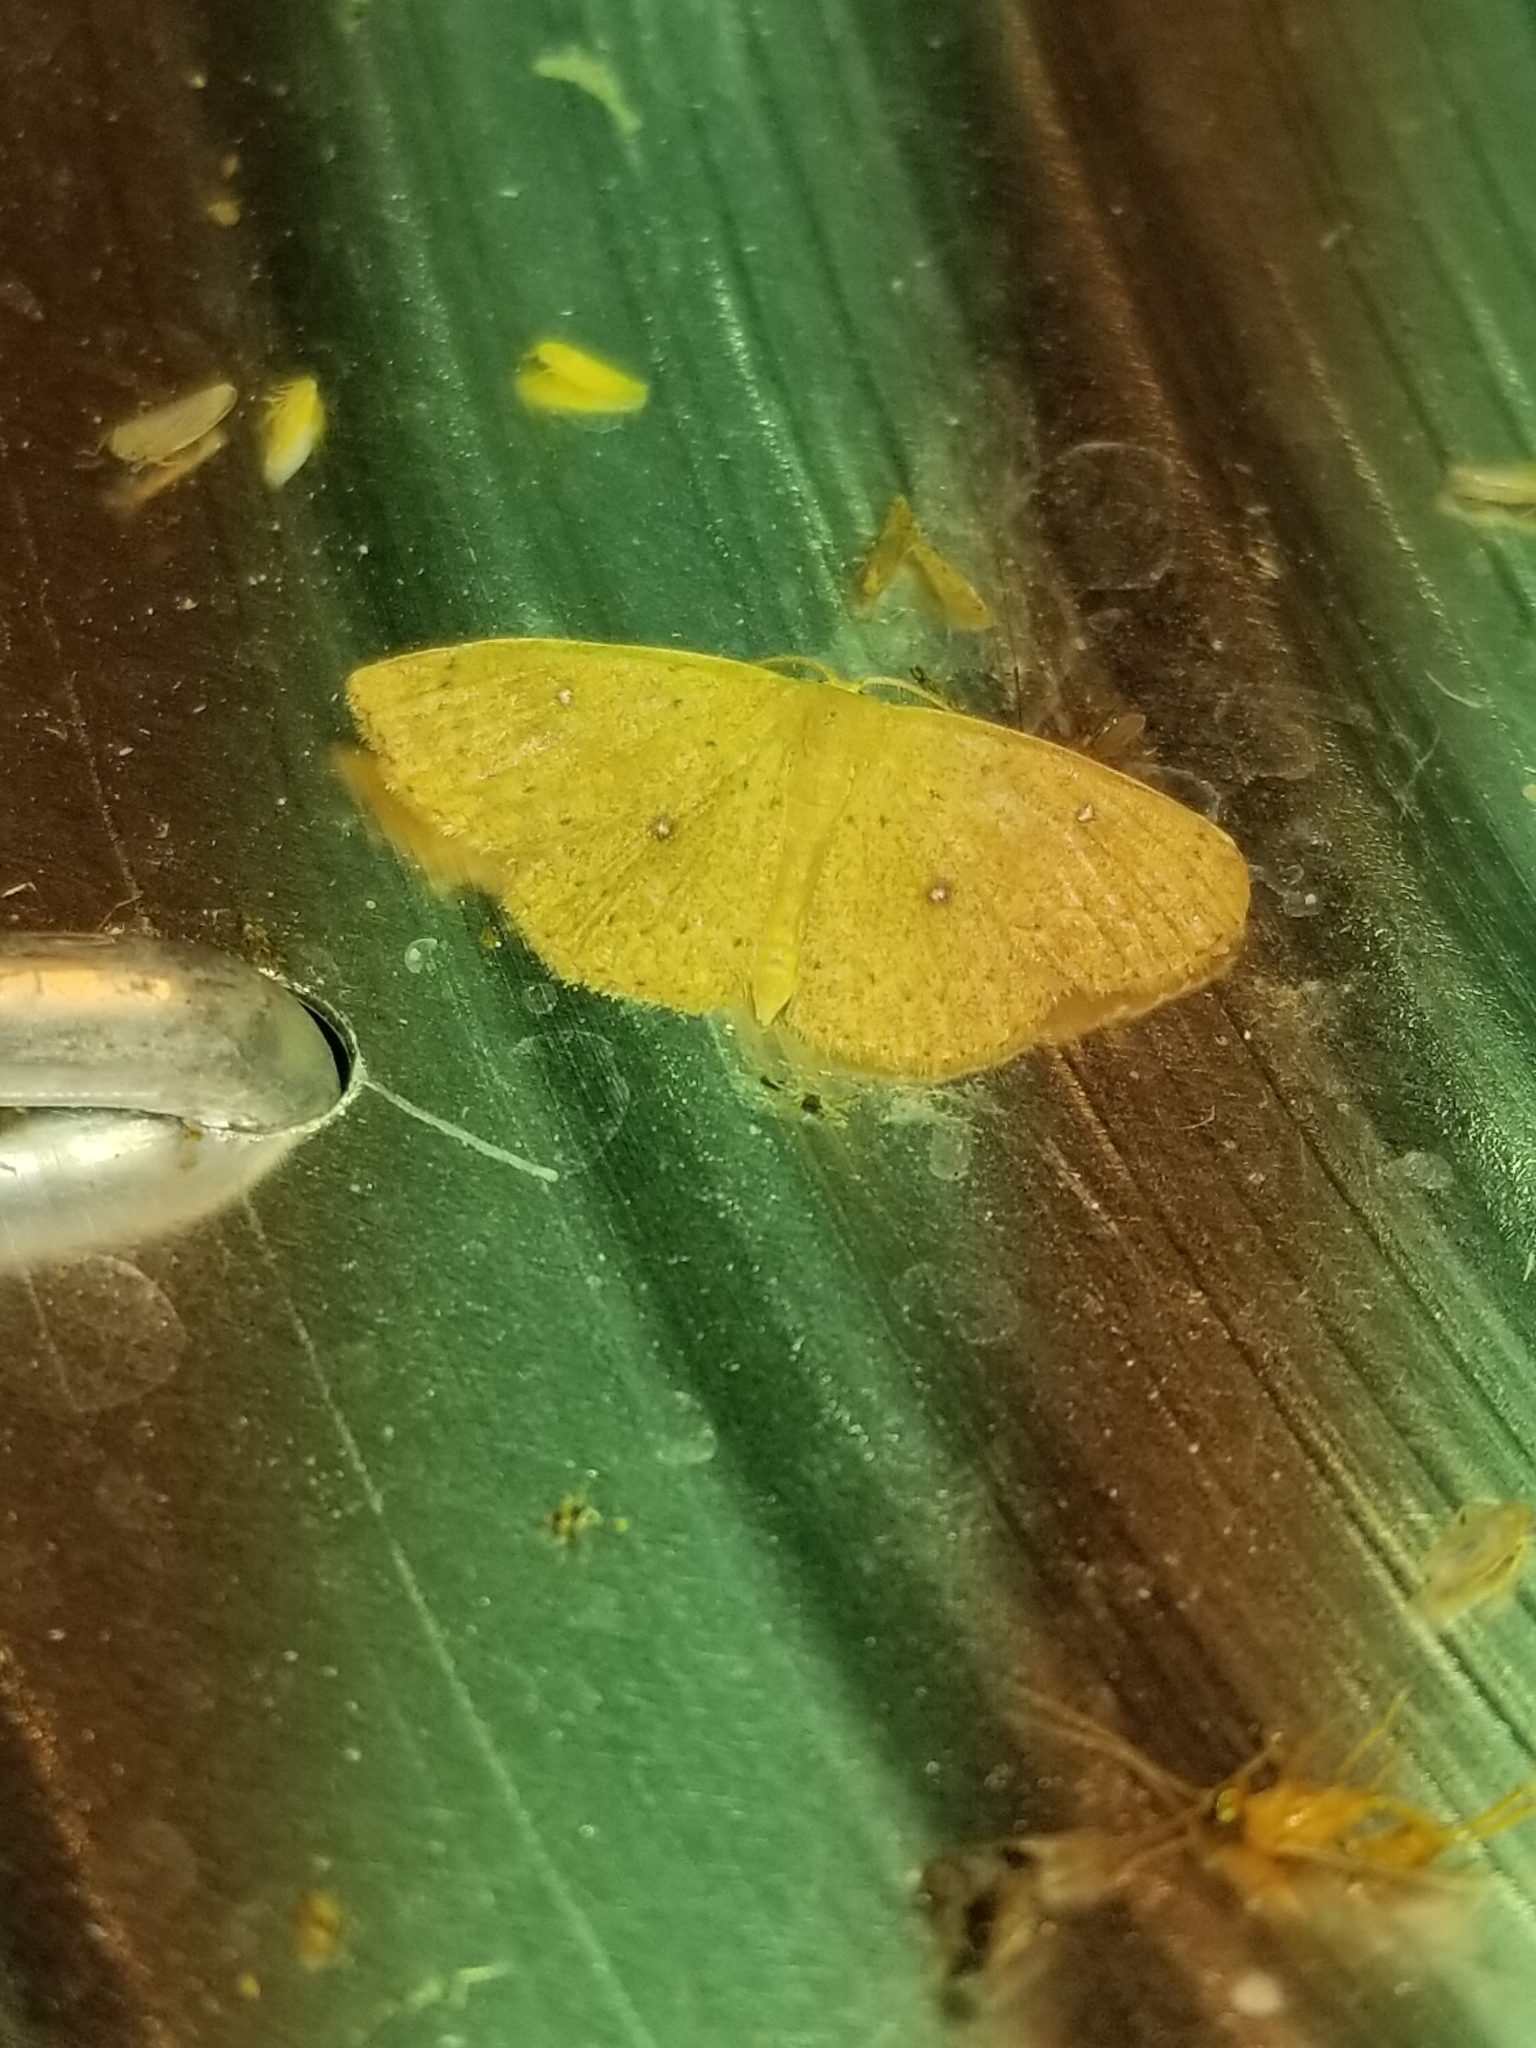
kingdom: Animalia
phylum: Arthropoda
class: Insecta
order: Lepidoptera
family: Geometridae
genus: Cyclophora
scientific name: Cyclophora packardi
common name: Packard's wave
